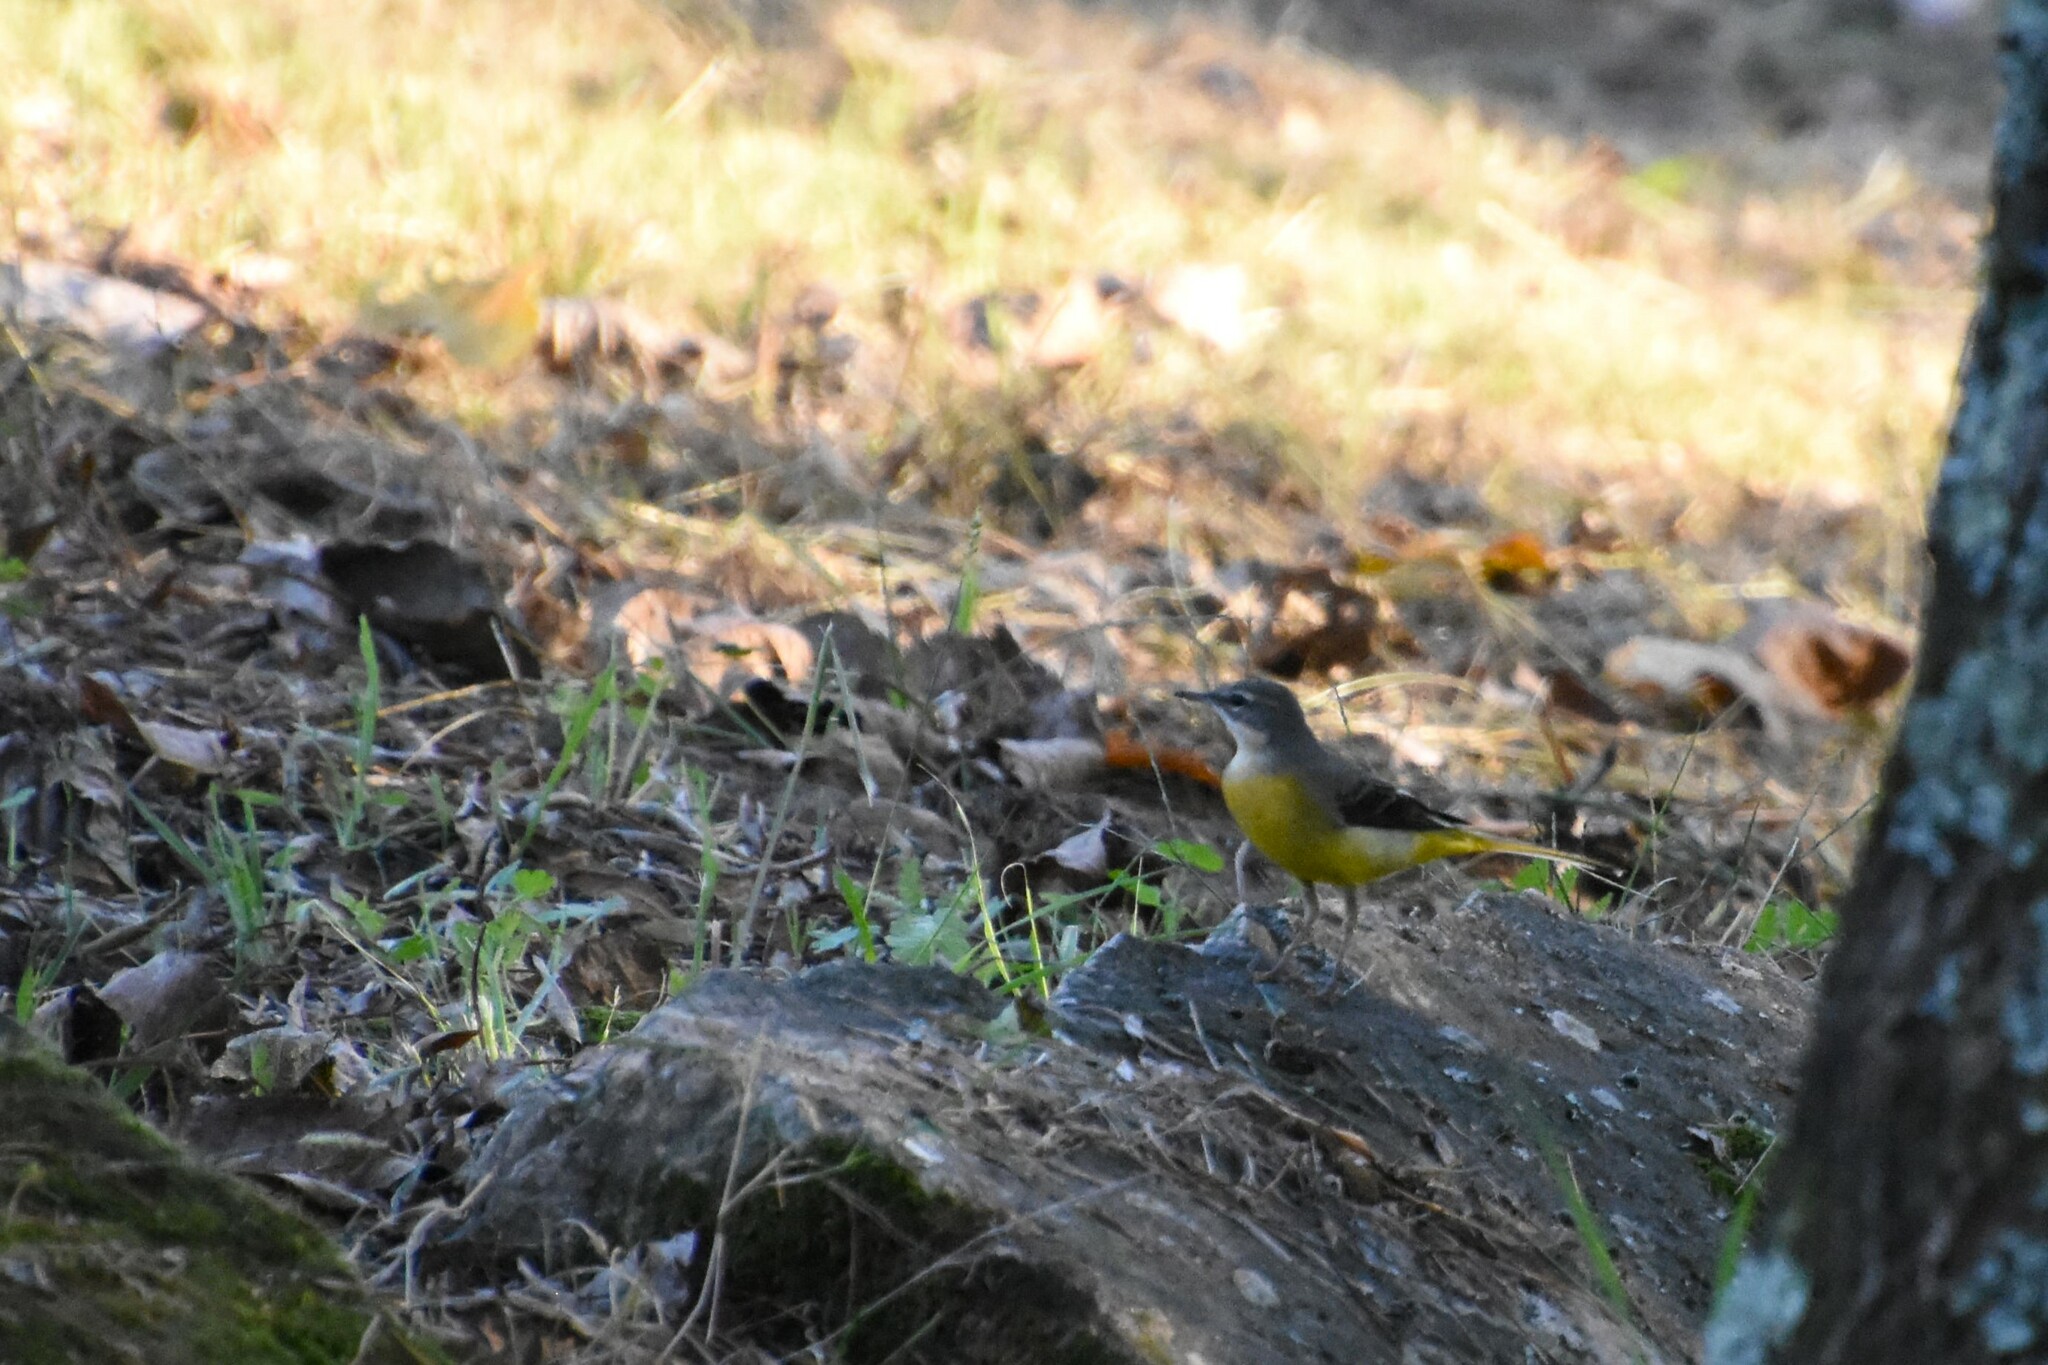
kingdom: Animalia
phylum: Chordata
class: Aves
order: Passeriformes
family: Motacillidae
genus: Motacilla
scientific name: Motacilla cinerea
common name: Grey wagtail
